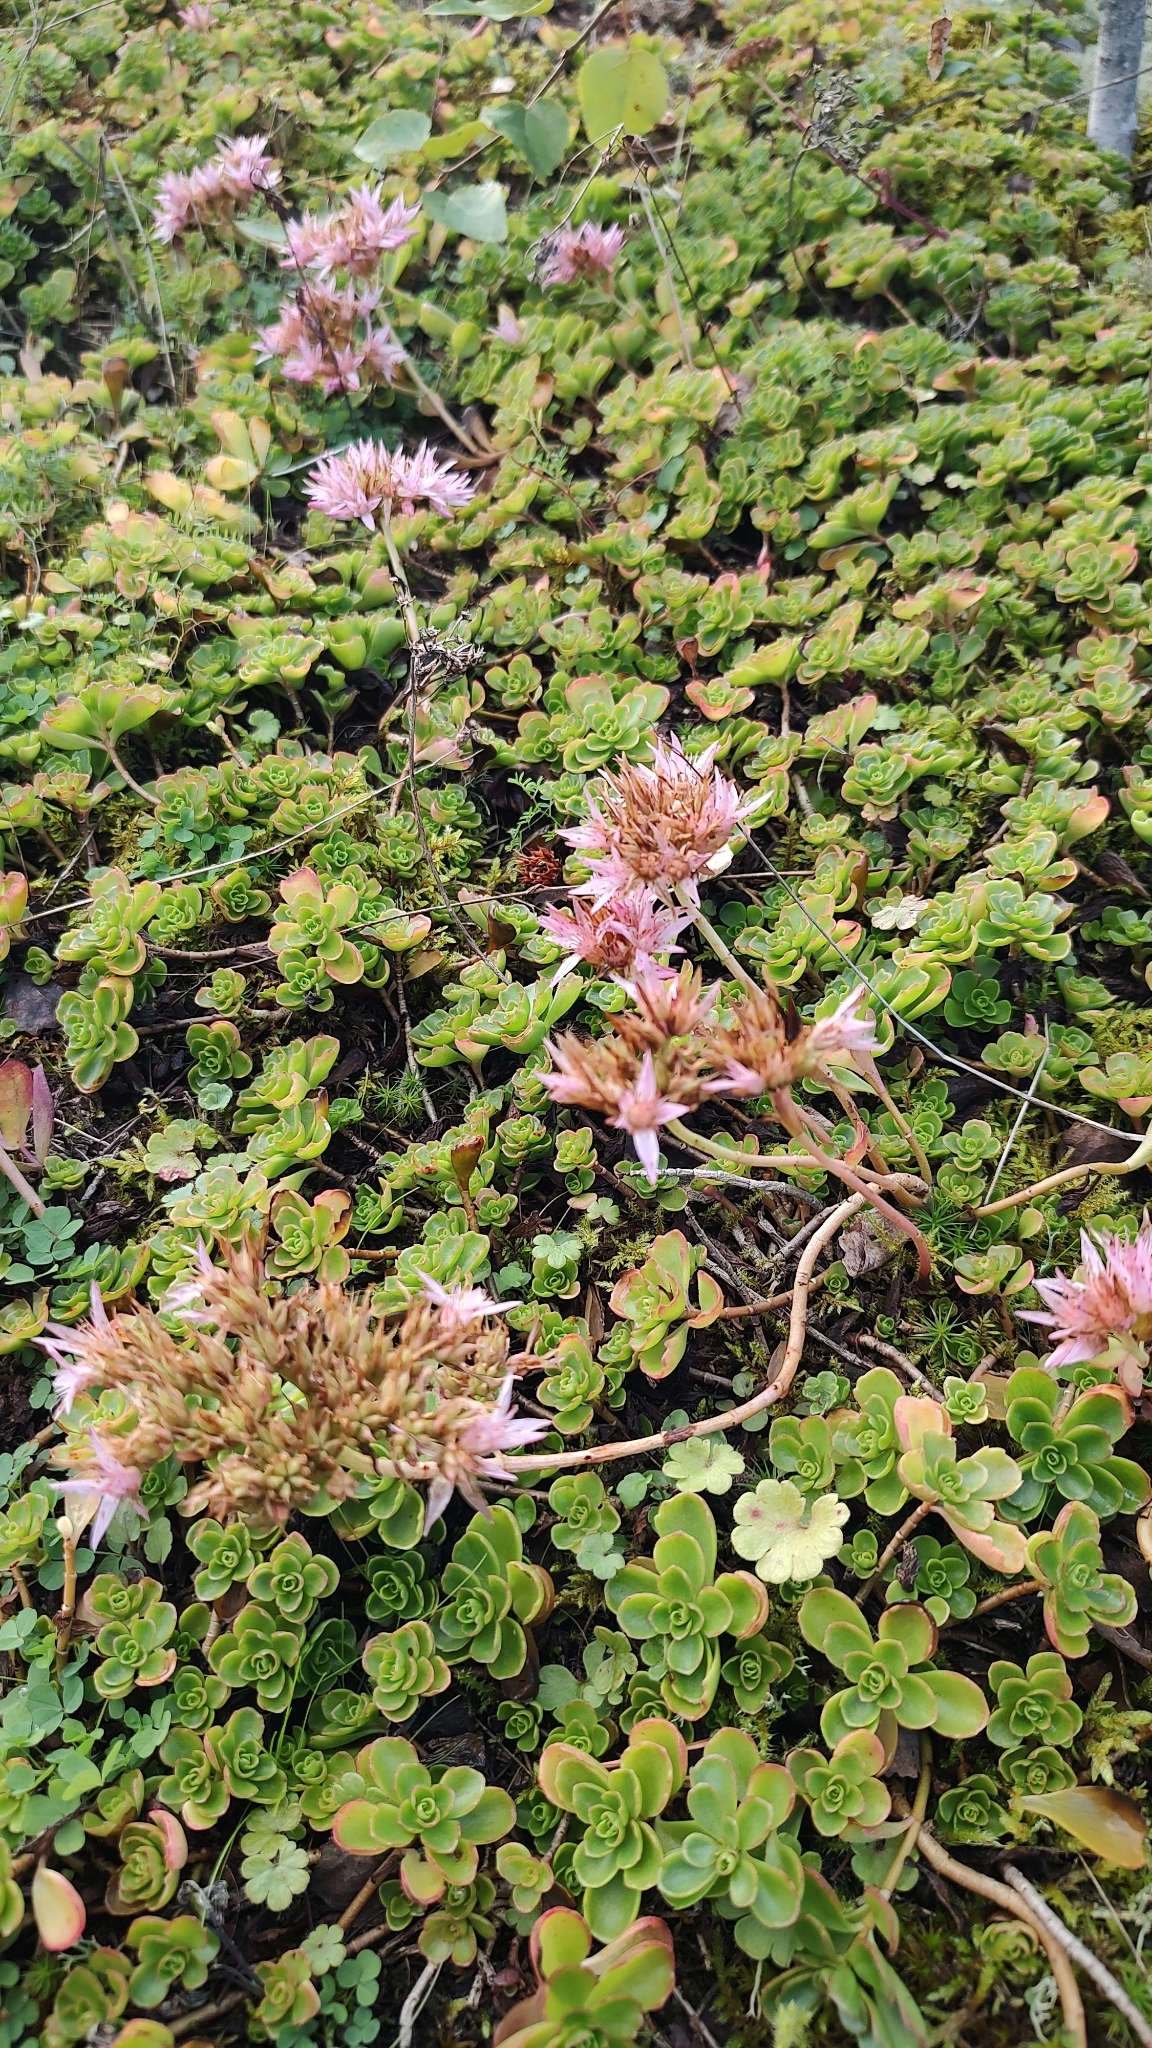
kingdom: Plantae
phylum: Tracheophyta
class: Magnoliopsida
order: Saxifragales
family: Crassulaceae
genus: Phedimus
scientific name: Phedimus spurius
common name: Caucasian stonecrop
